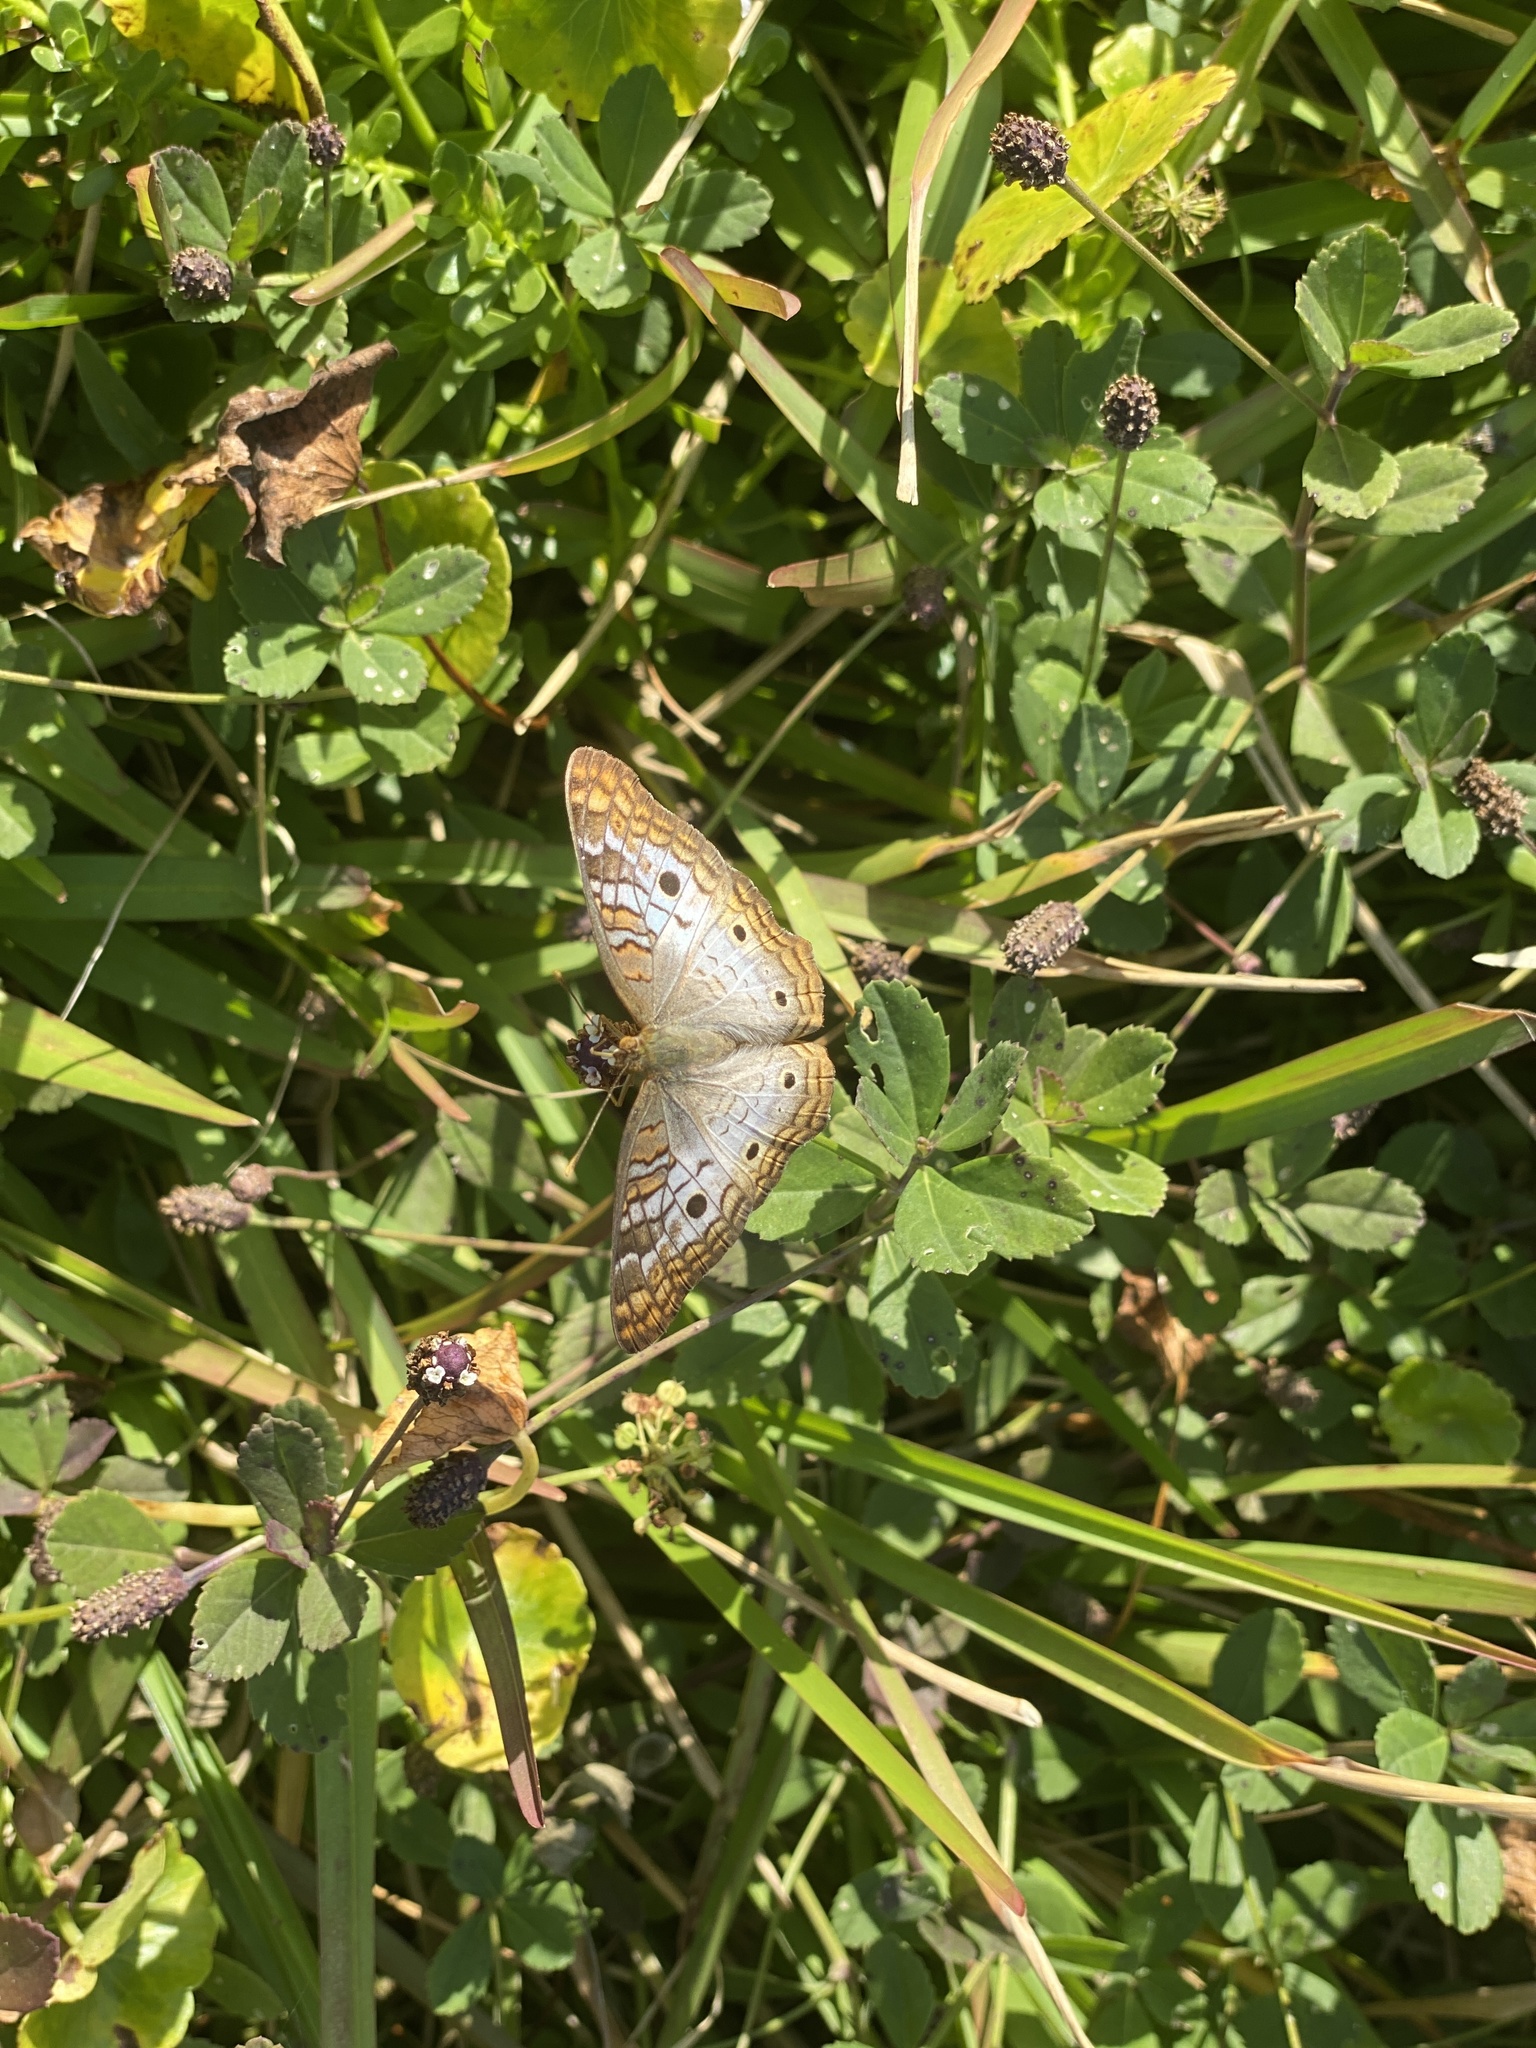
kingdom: Animalia
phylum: Arthropoda
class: Insecta
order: Lepidoptera
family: Nymphalidae
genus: Anartia
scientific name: Anartia jatrophae
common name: White peacock
